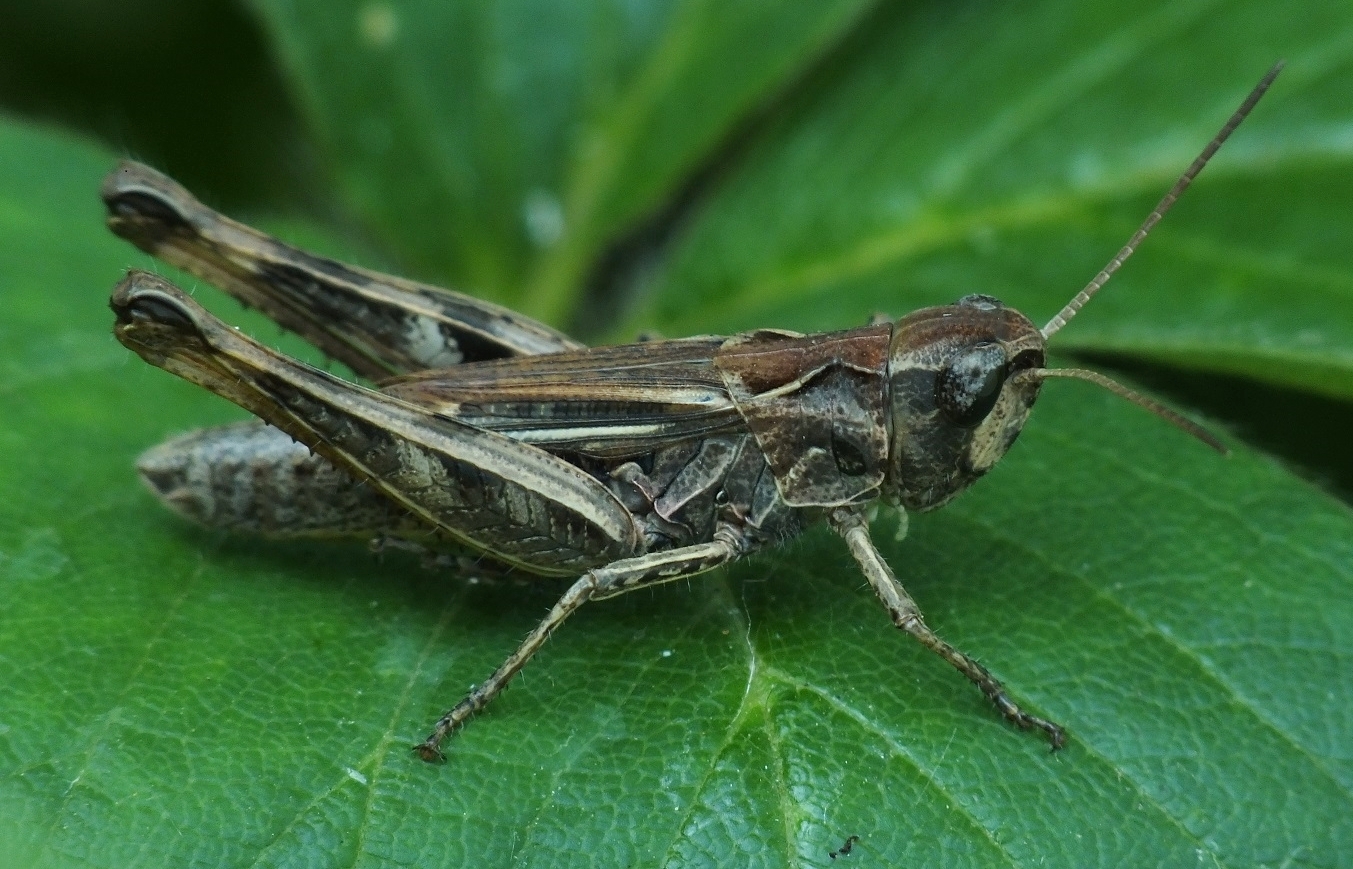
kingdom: Animalia
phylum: Arthropoda
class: Insecta
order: Orthoptera
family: Acrididae
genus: Chorthippus
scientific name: Chorthippus macrocerus
